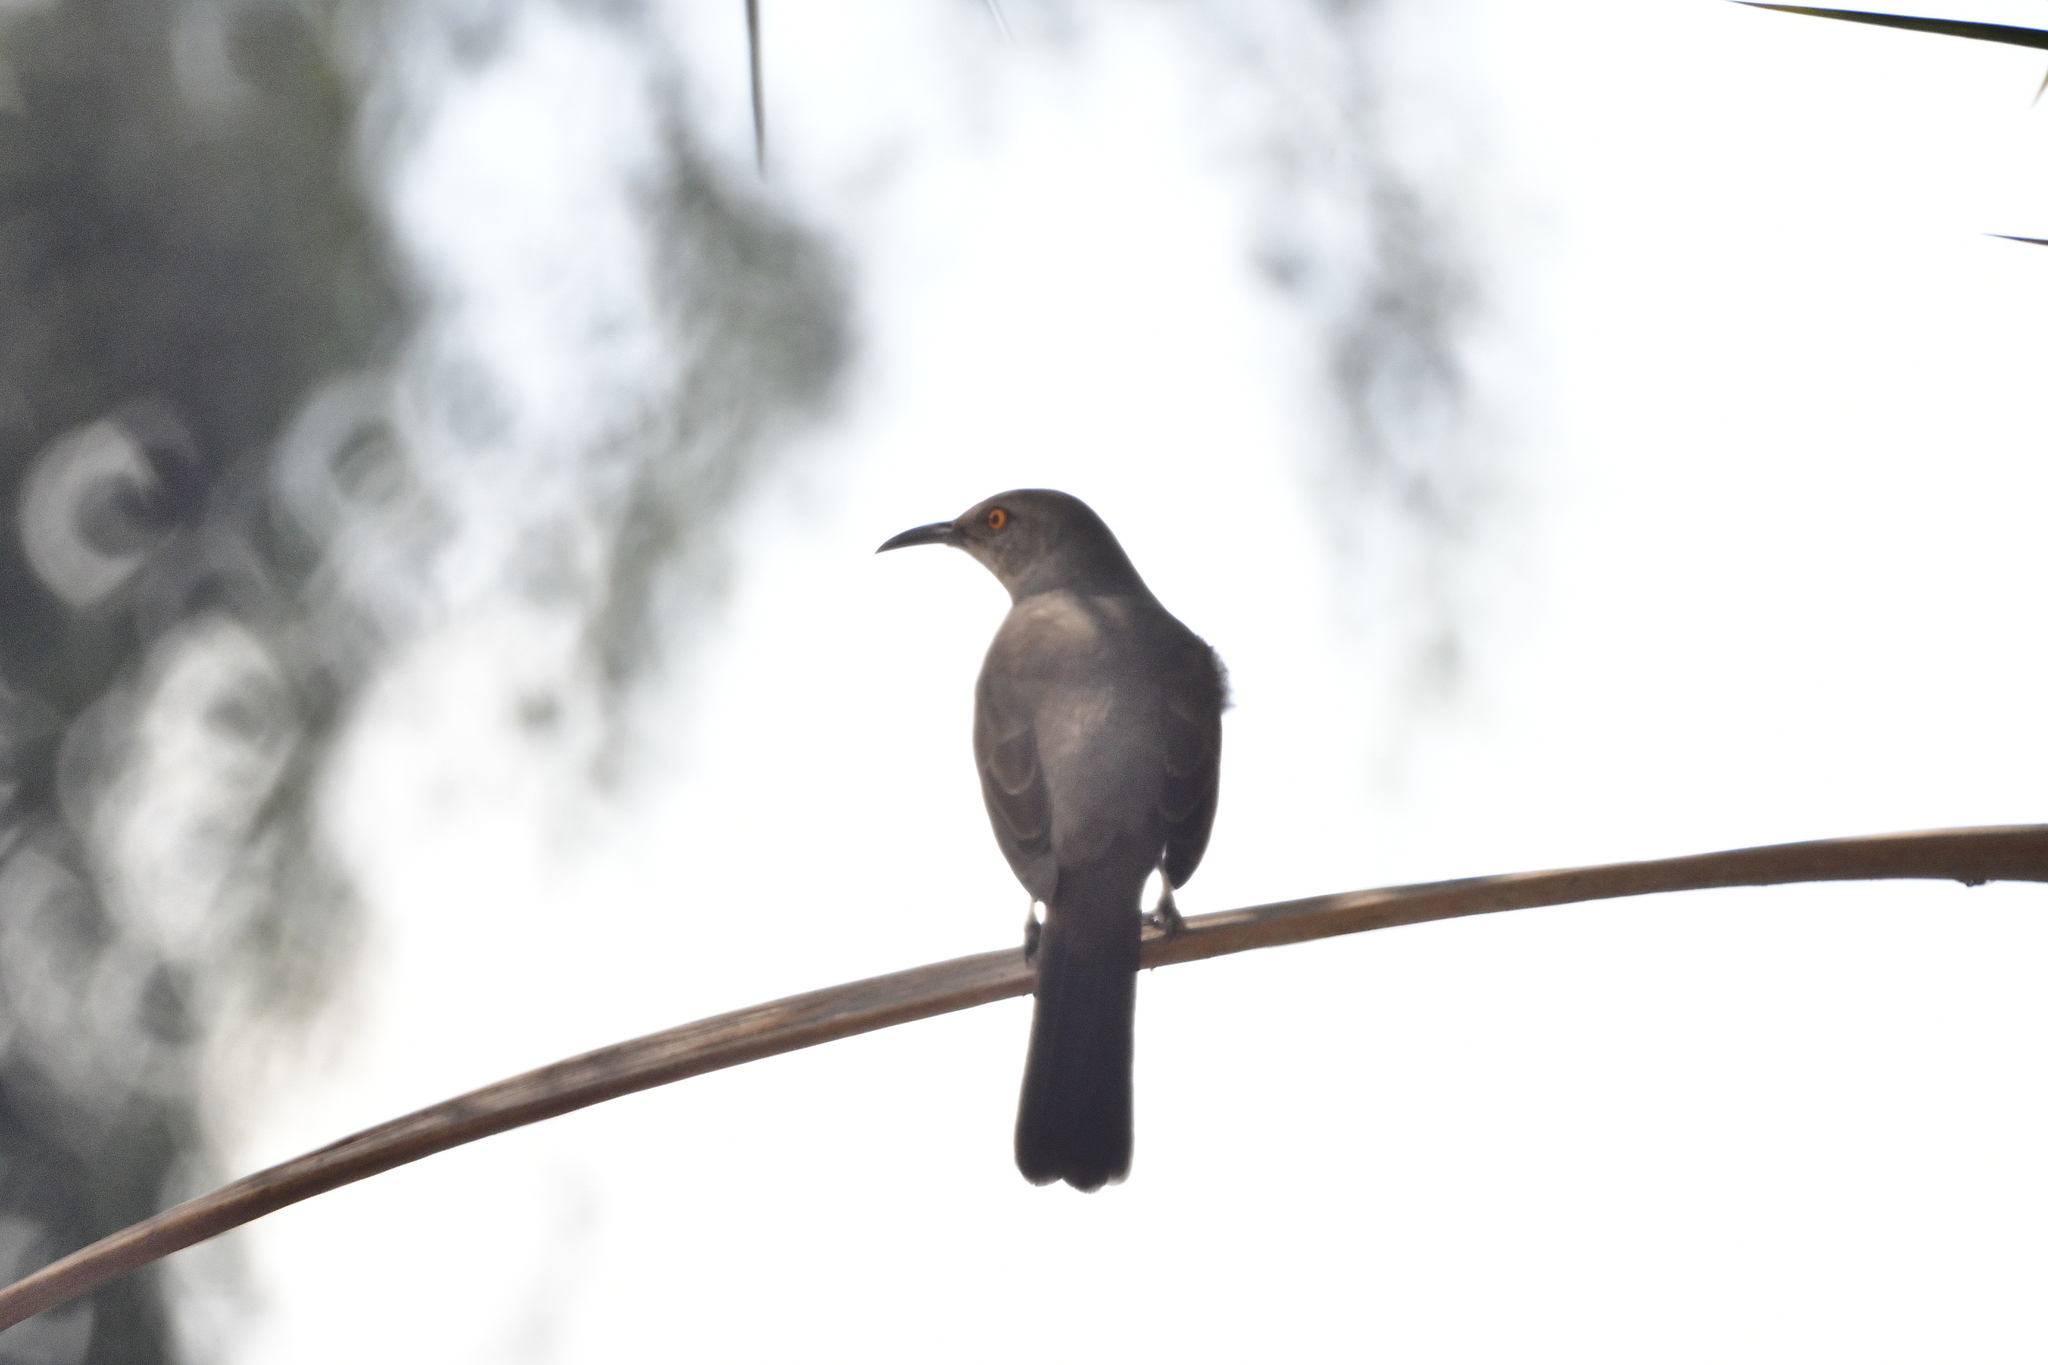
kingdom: Animalia
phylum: Chordata
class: Aves
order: Passeriformes
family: Mimidae
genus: Toxostoma
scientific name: Toxostoma curvirostre
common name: Curve-billed thrasher
